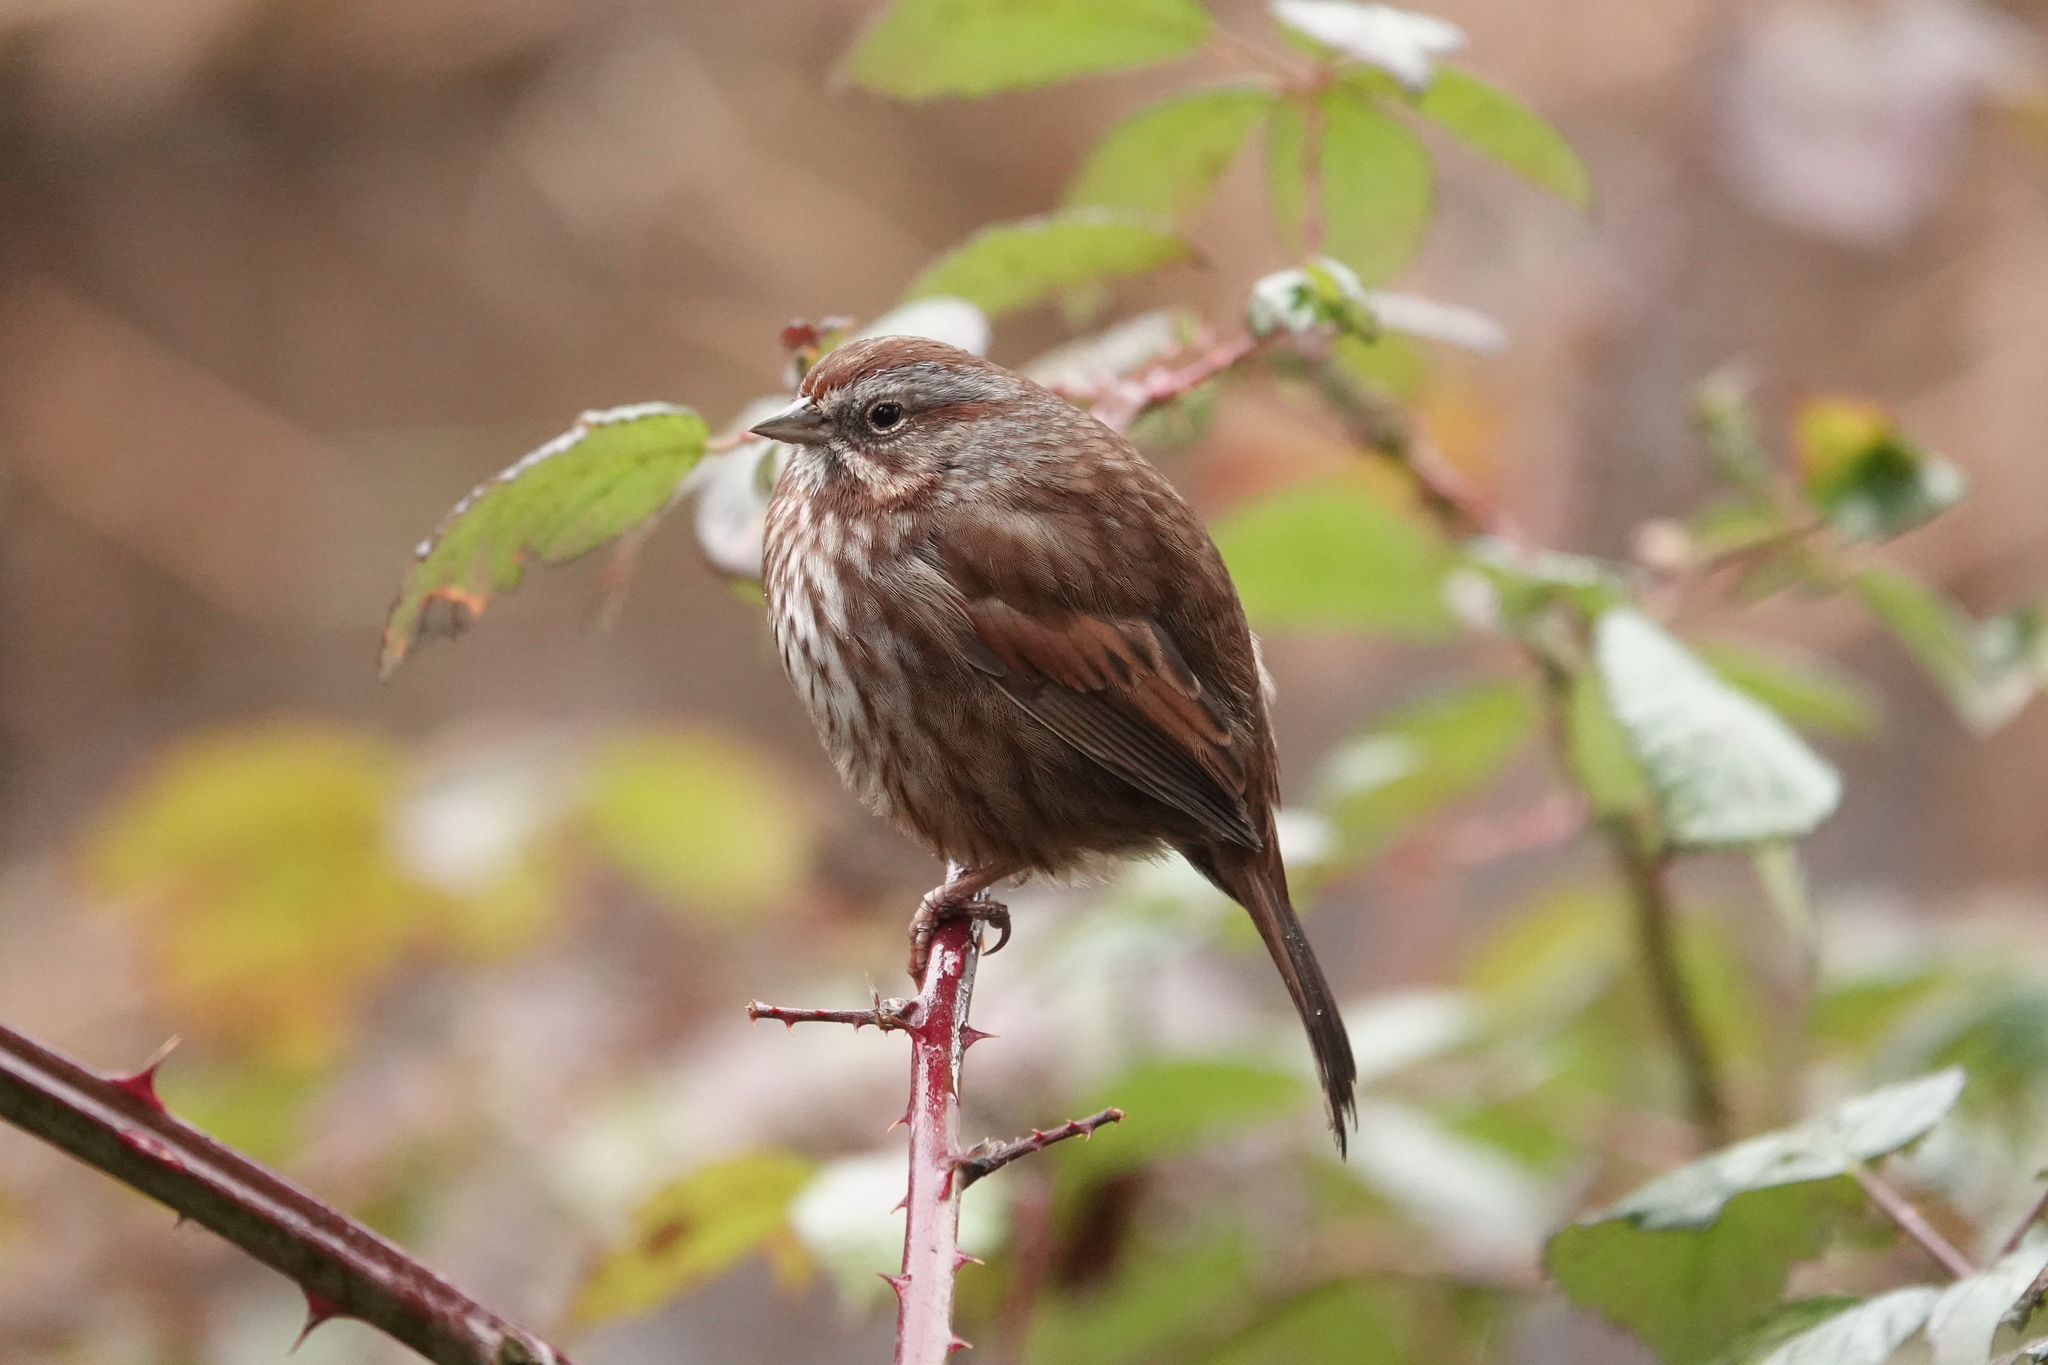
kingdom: Animalia
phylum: Chordata
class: Aves
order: Passeriformes
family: Passerellidae
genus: Melospiza
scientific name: Melospiza melodia
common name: Song sparrow
